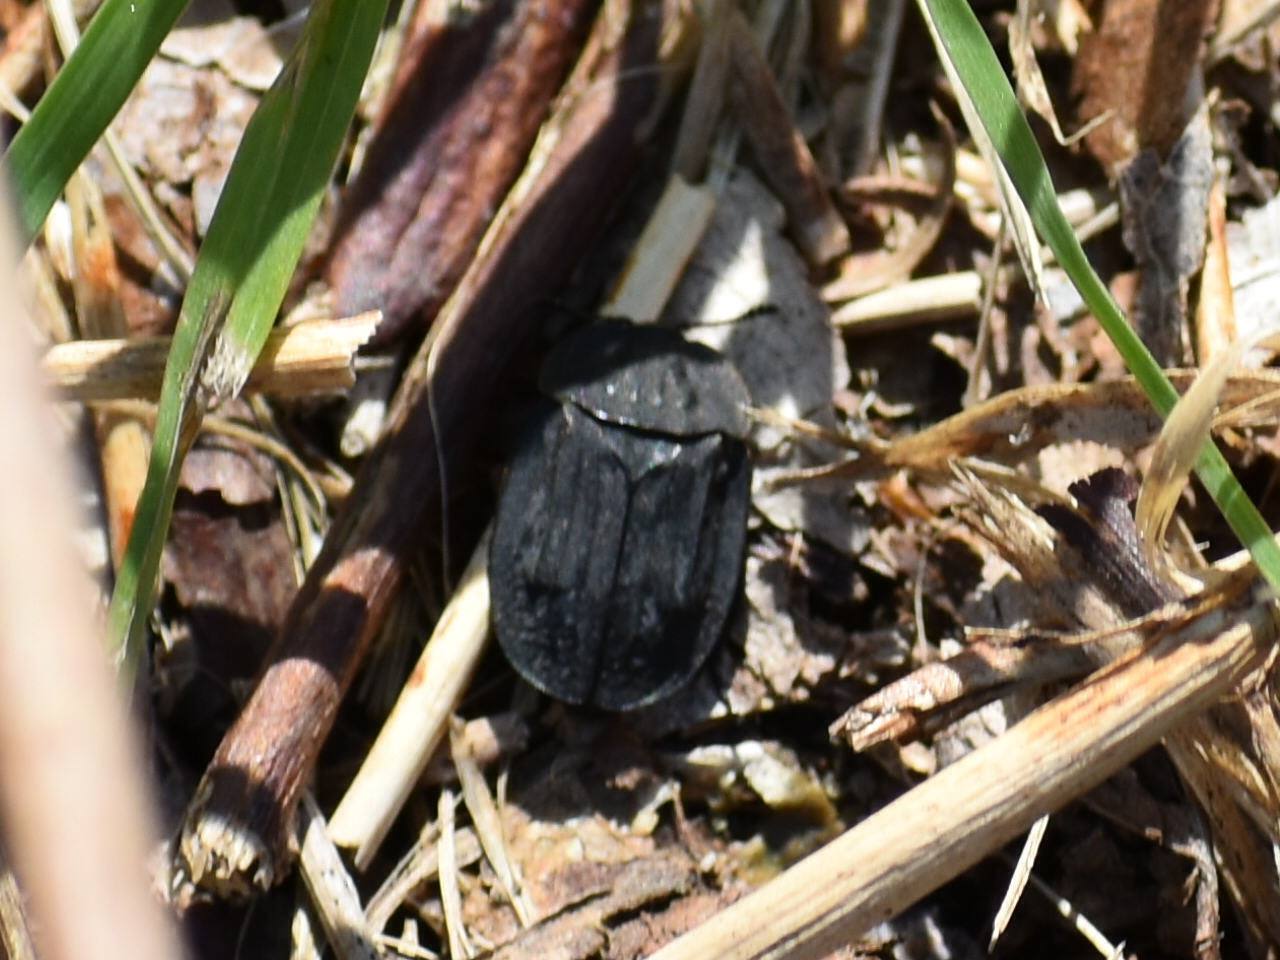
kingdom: Animalia
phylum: Arthropoda
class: Insecta
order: Coleoptera
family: Staphylinidae
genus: Oiceoptoma
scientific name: Oiceoptoma inaequale
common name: Ridged carrion beetle
